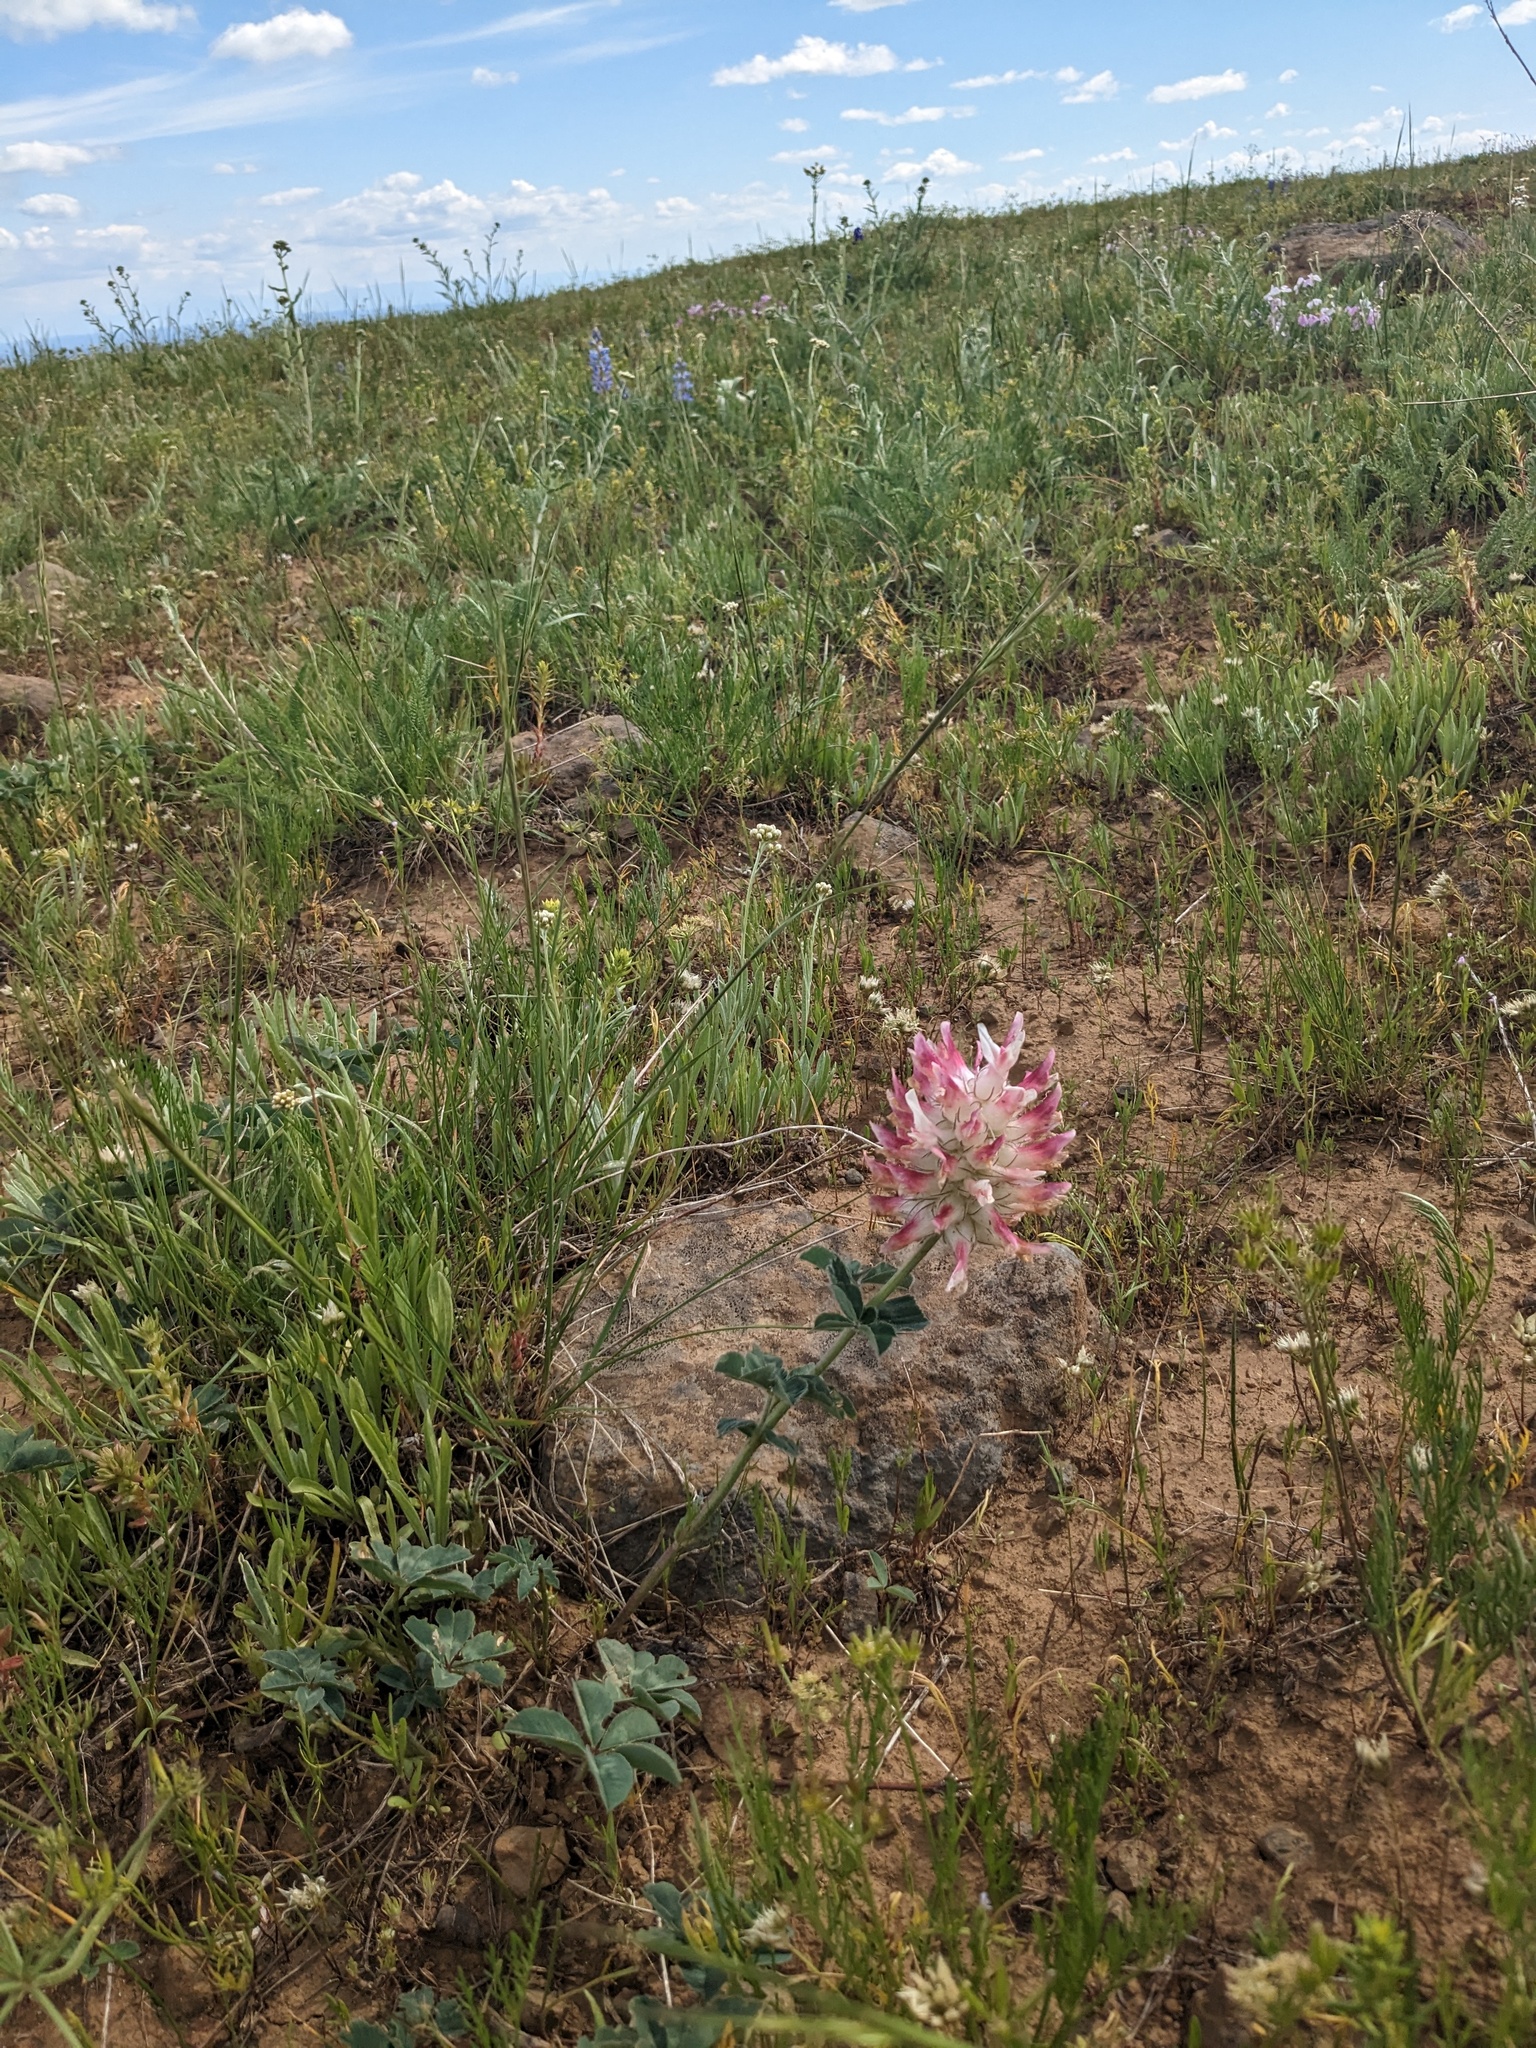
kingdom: Plantae
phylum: Tracheophyta
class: Magnoliopsida
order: Fabales
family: Fabaceae
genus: Trifolium
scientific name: Trifolium macrocephalum
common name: Large-head clover
